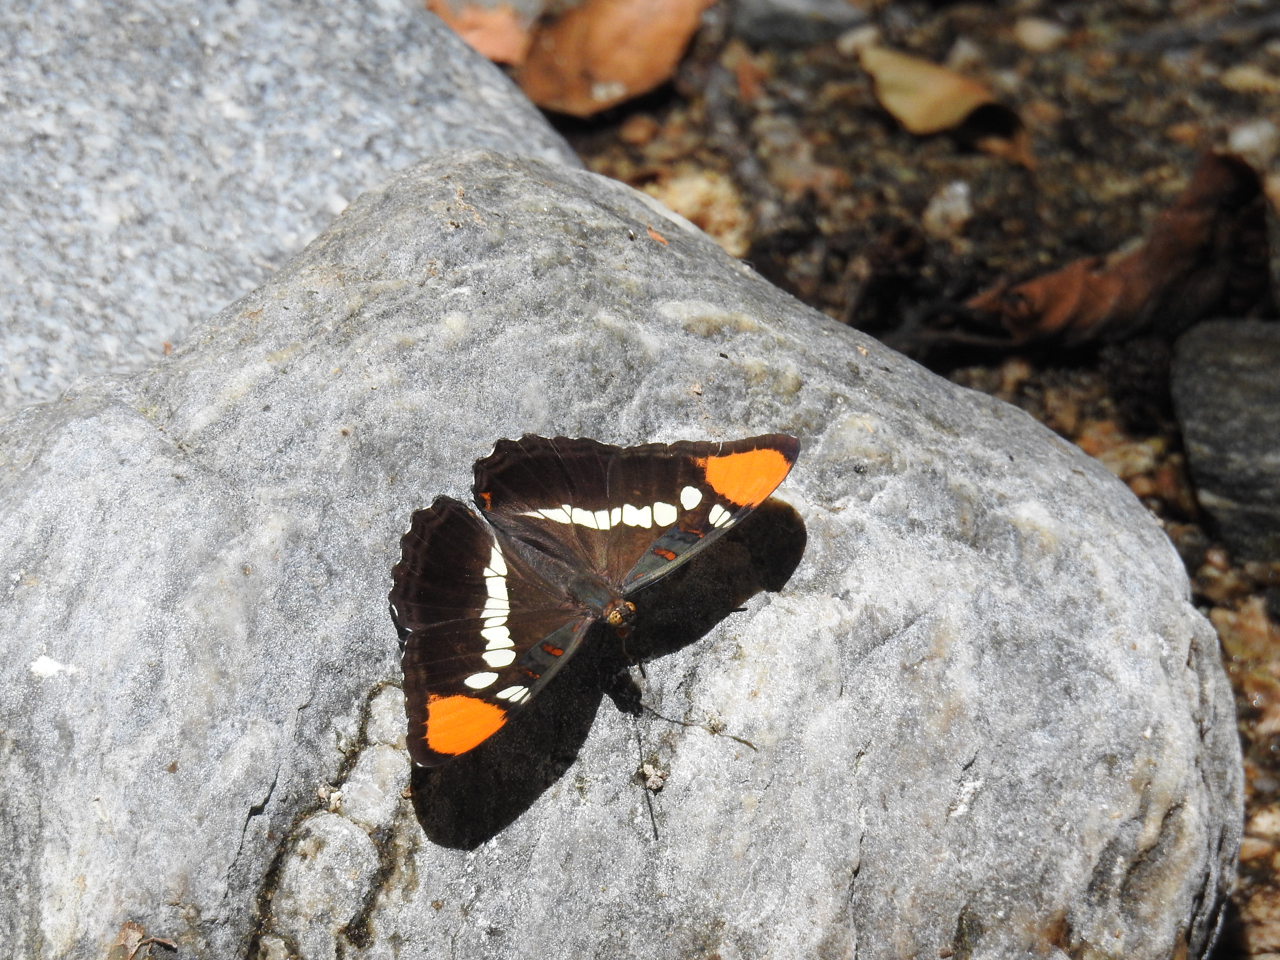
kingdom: Animalia
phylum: Arthropoda
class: Insecta
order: Lepidoptera
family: Nymphalidae
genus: Limenitis
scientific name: Limenitis bredowii
